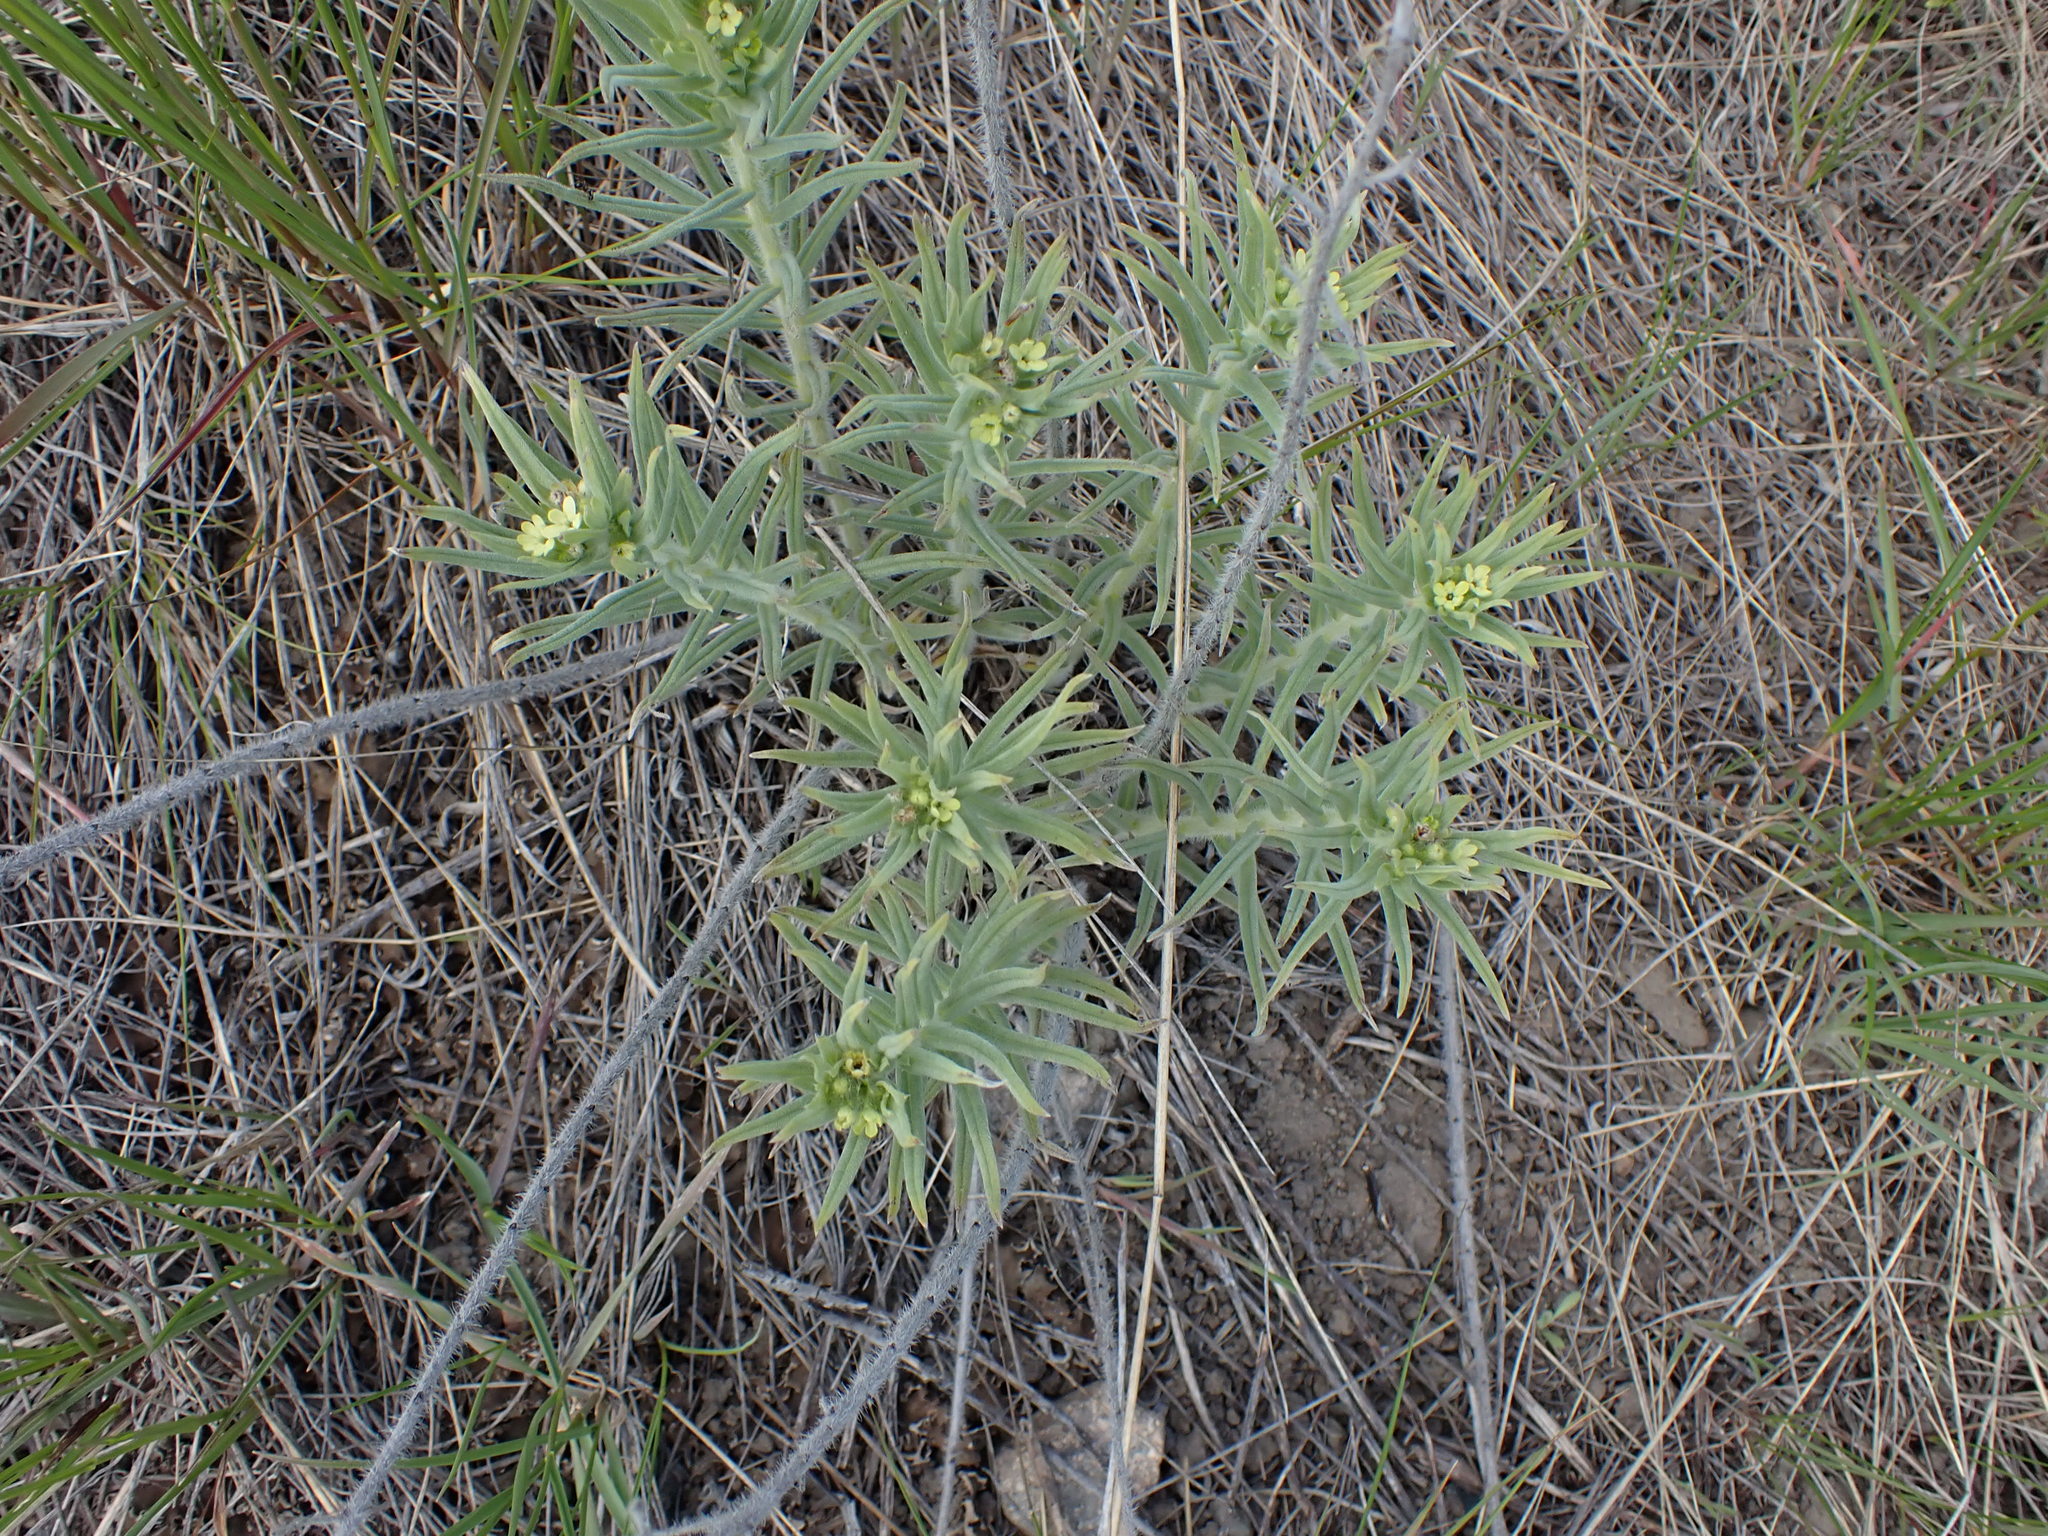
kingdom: Plantae
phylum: Tracheophyta
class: Magnoliopsida
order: Boraginales
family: Boraginaceae
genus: Lithospermum
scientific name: Lithospermum ruderale
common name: Western gromwell
